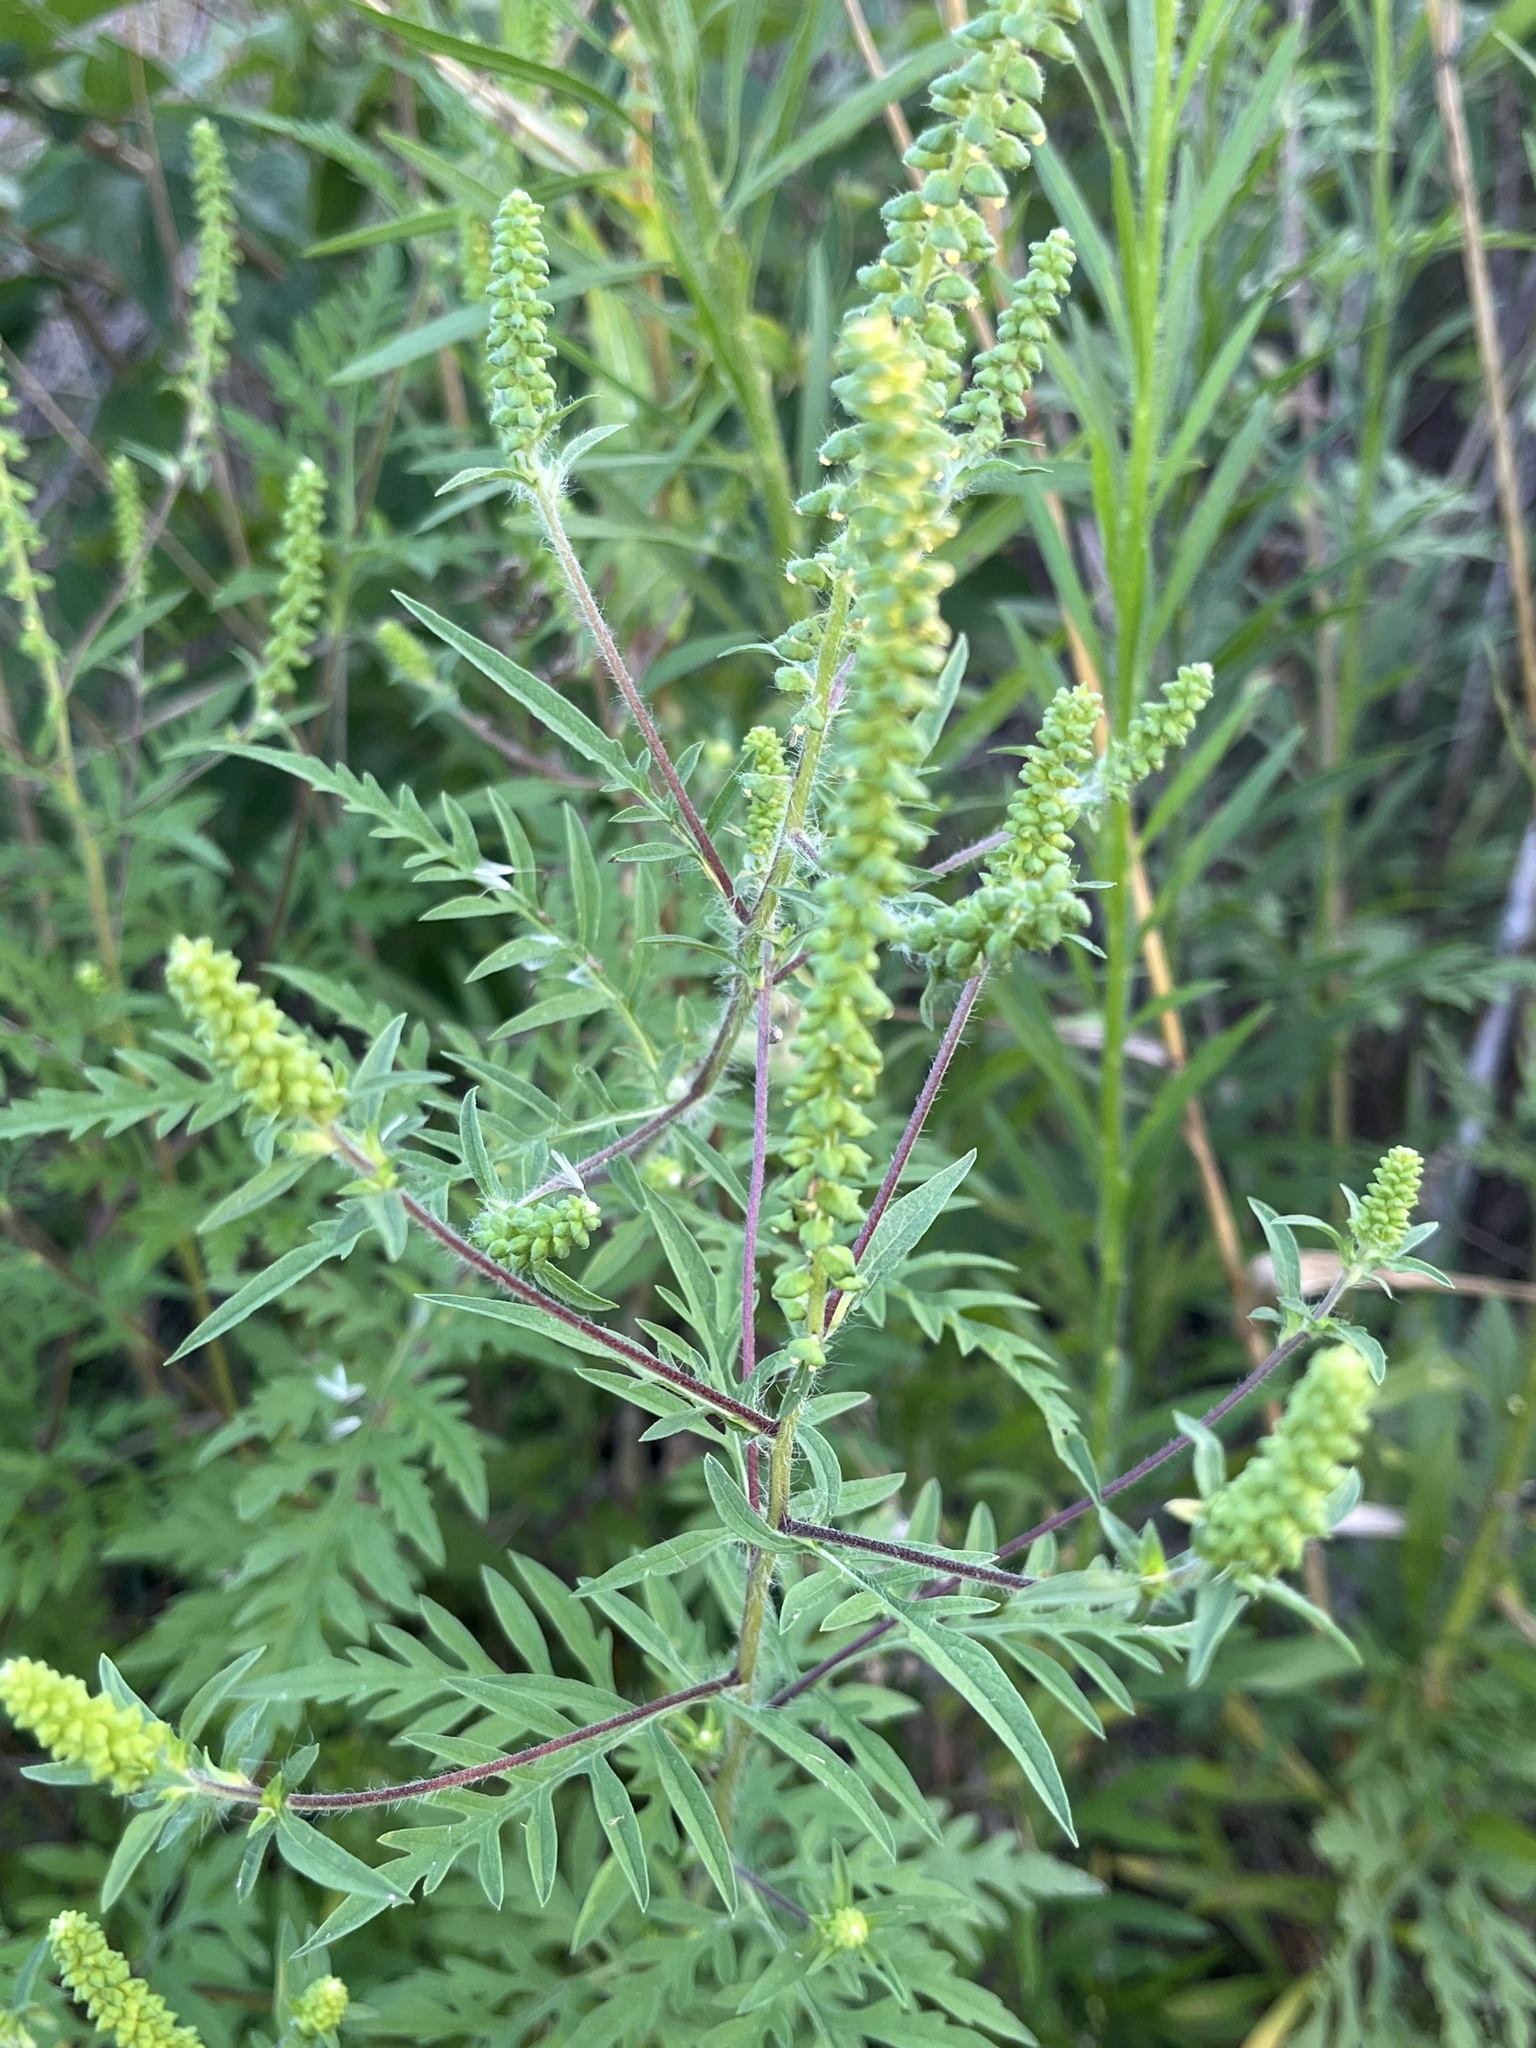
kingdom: Plantae
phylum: Tracheophyta
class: Magnoliopsida
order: Asterales
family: Asteraceae
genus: Ambrosia
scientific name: Ambrosia artemisiifolia
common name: Annual ragweed
